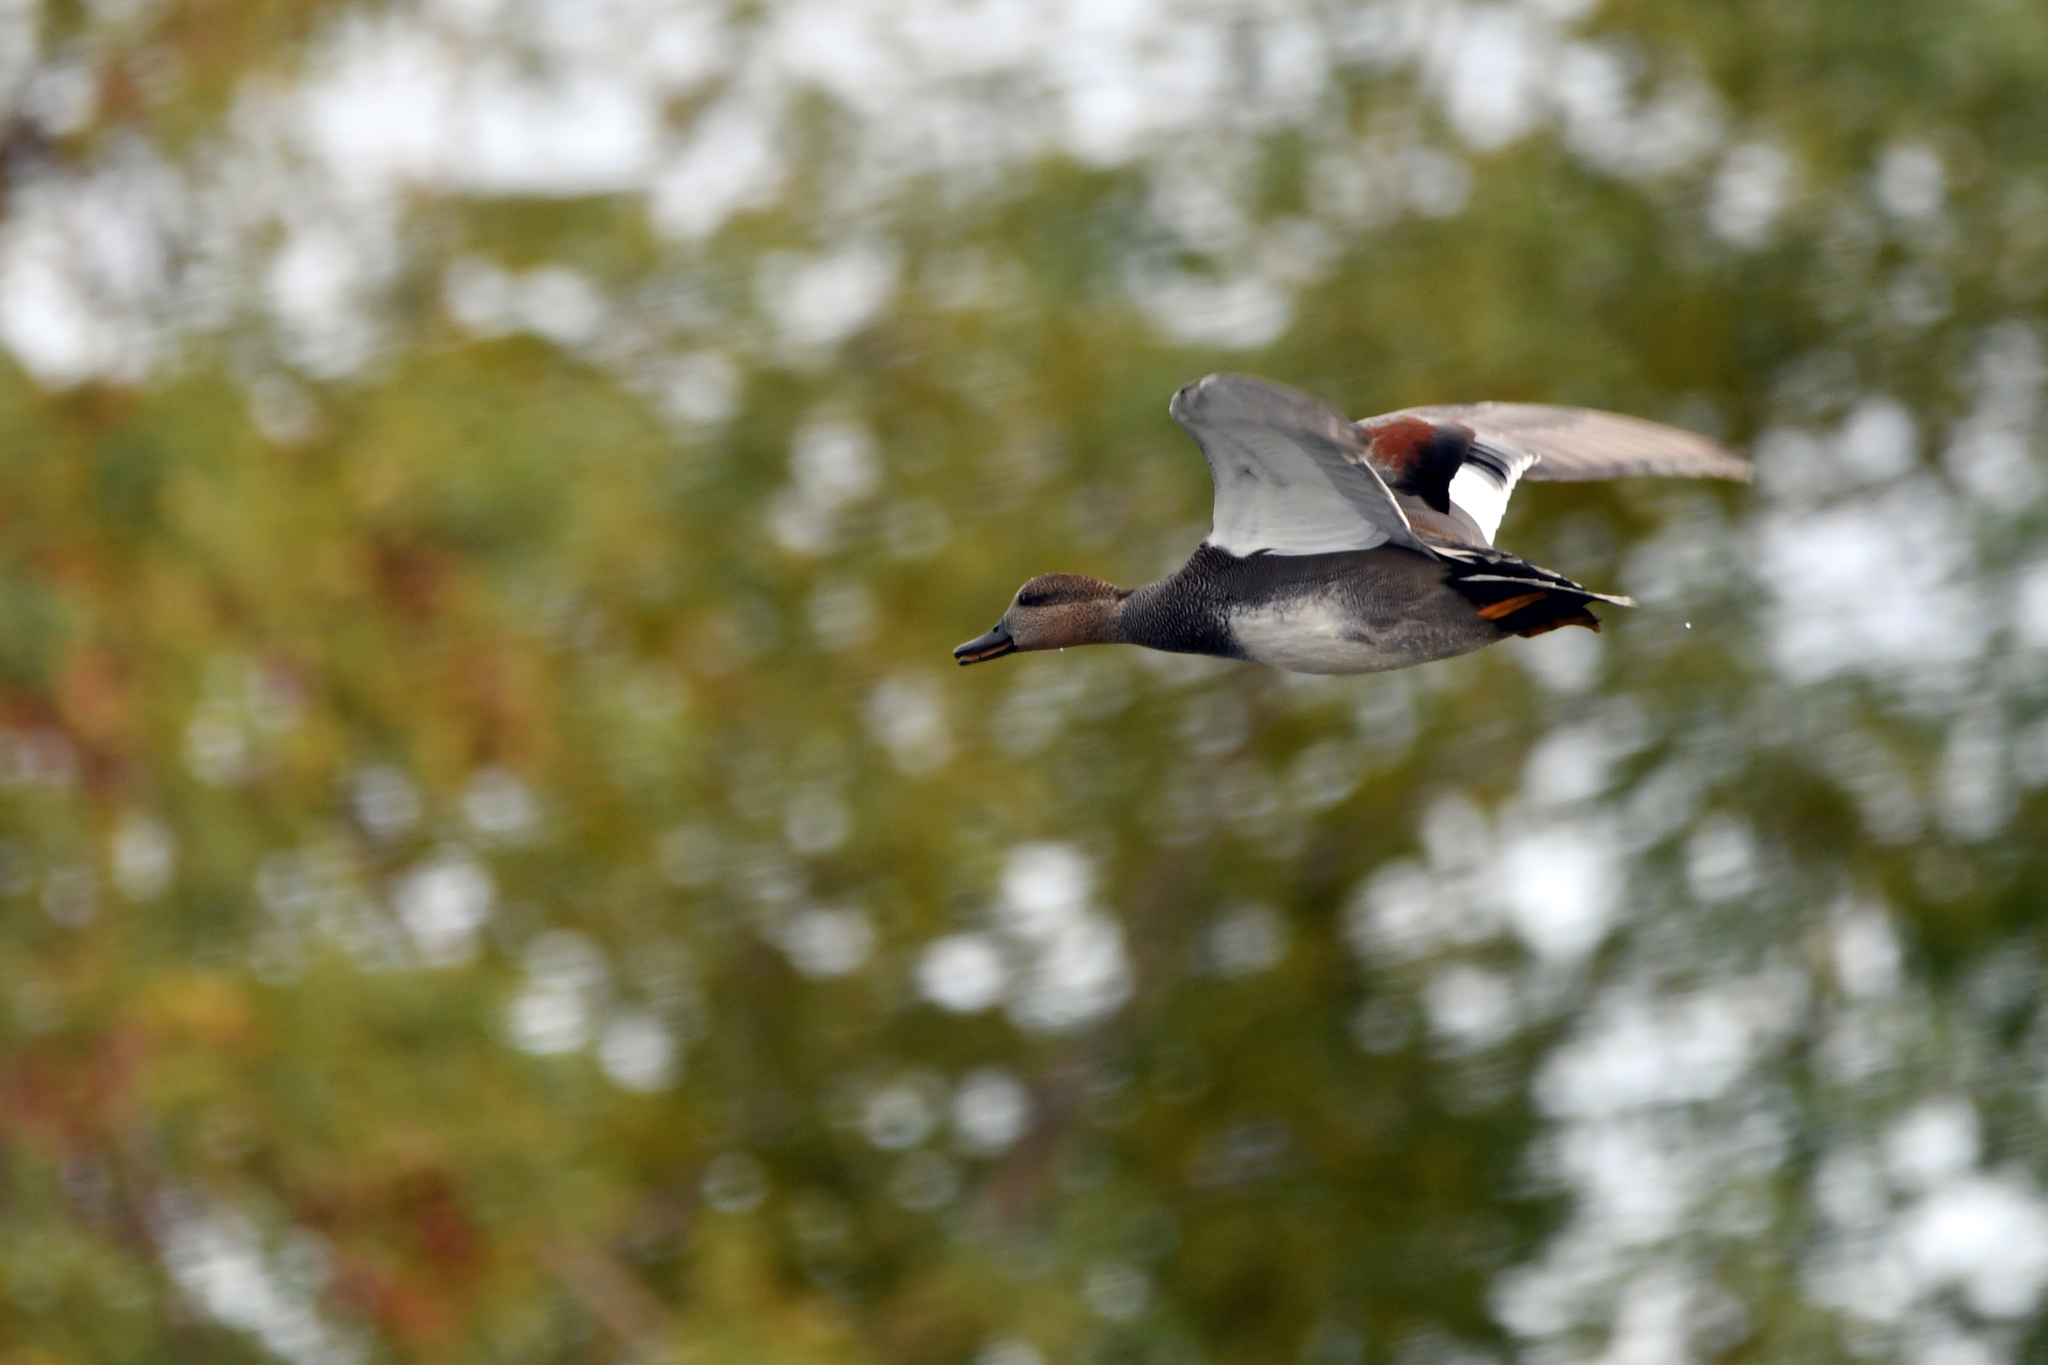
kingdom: Animalia
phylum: Chordata
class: Aves
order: Anseriformes
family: Anatidae
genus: Mareca
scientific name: Mareca strepera
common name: Gadwall
